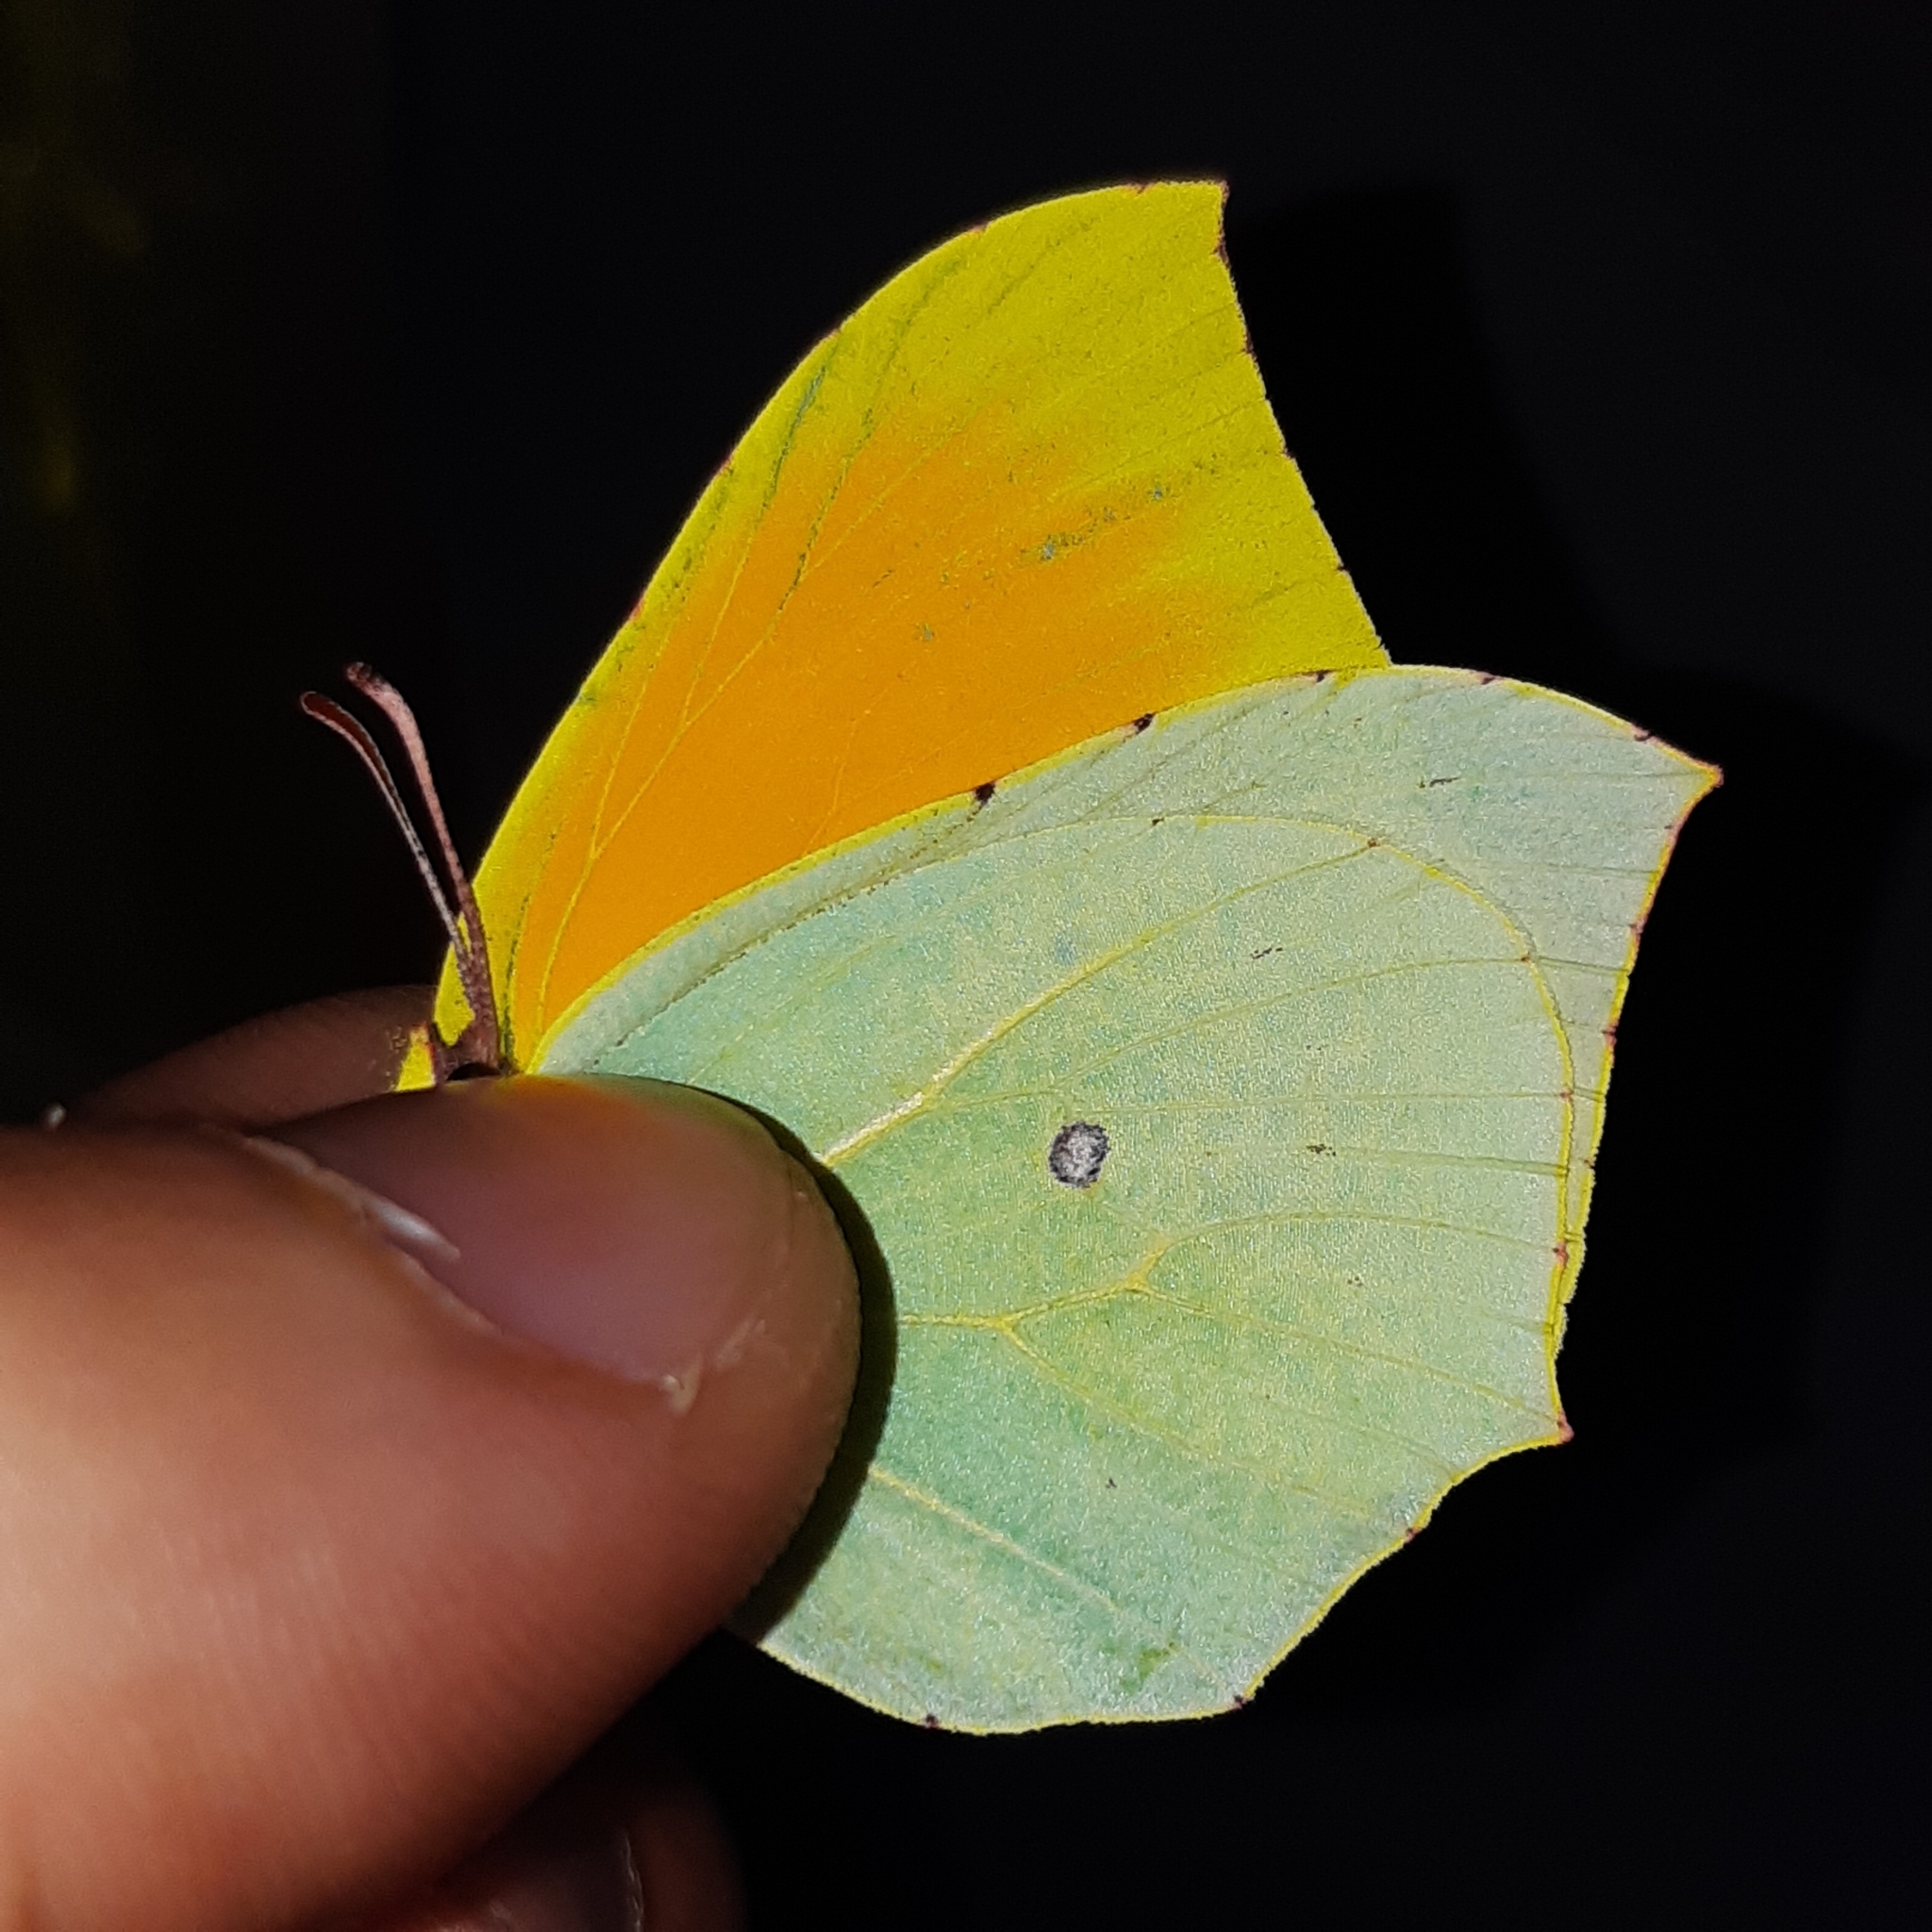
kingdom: Animalia
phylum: Arthropoda
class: Insecta
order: Lepidoptera
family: Pieridae
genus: Gonepteryx
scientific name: Gonepteryx cleopatra
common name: Cleopatra
